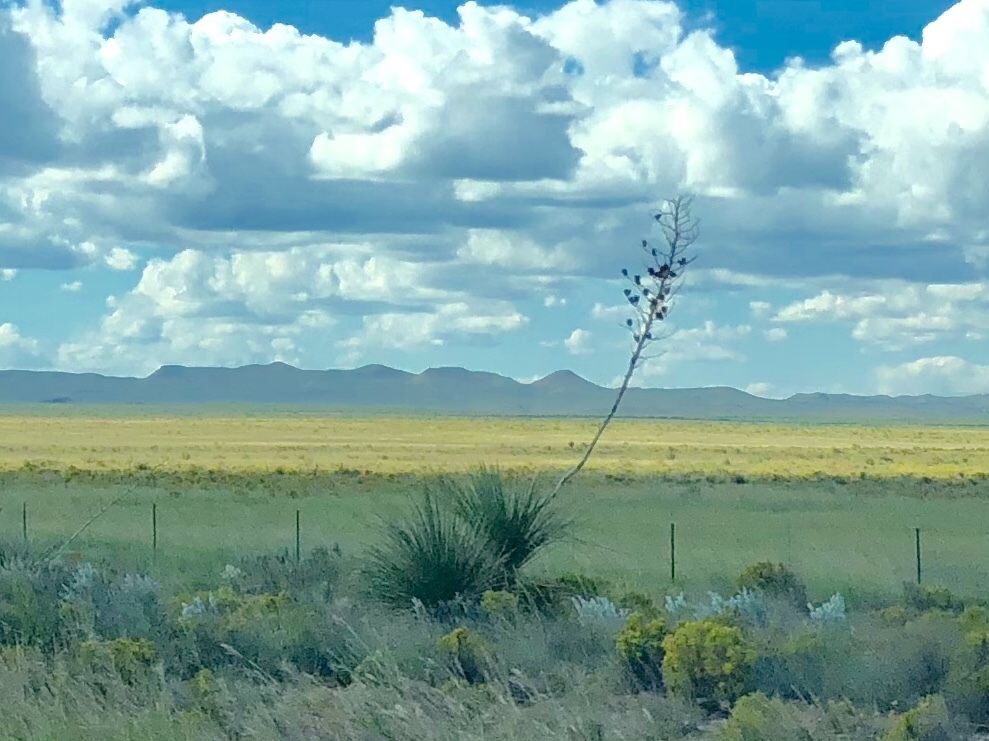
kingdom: Plantae
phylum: Tracheophyta
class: Liliopsida
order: Asparagales
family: Asparagaceae
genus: Yucca
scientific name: Yucca elata
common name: Palmella
